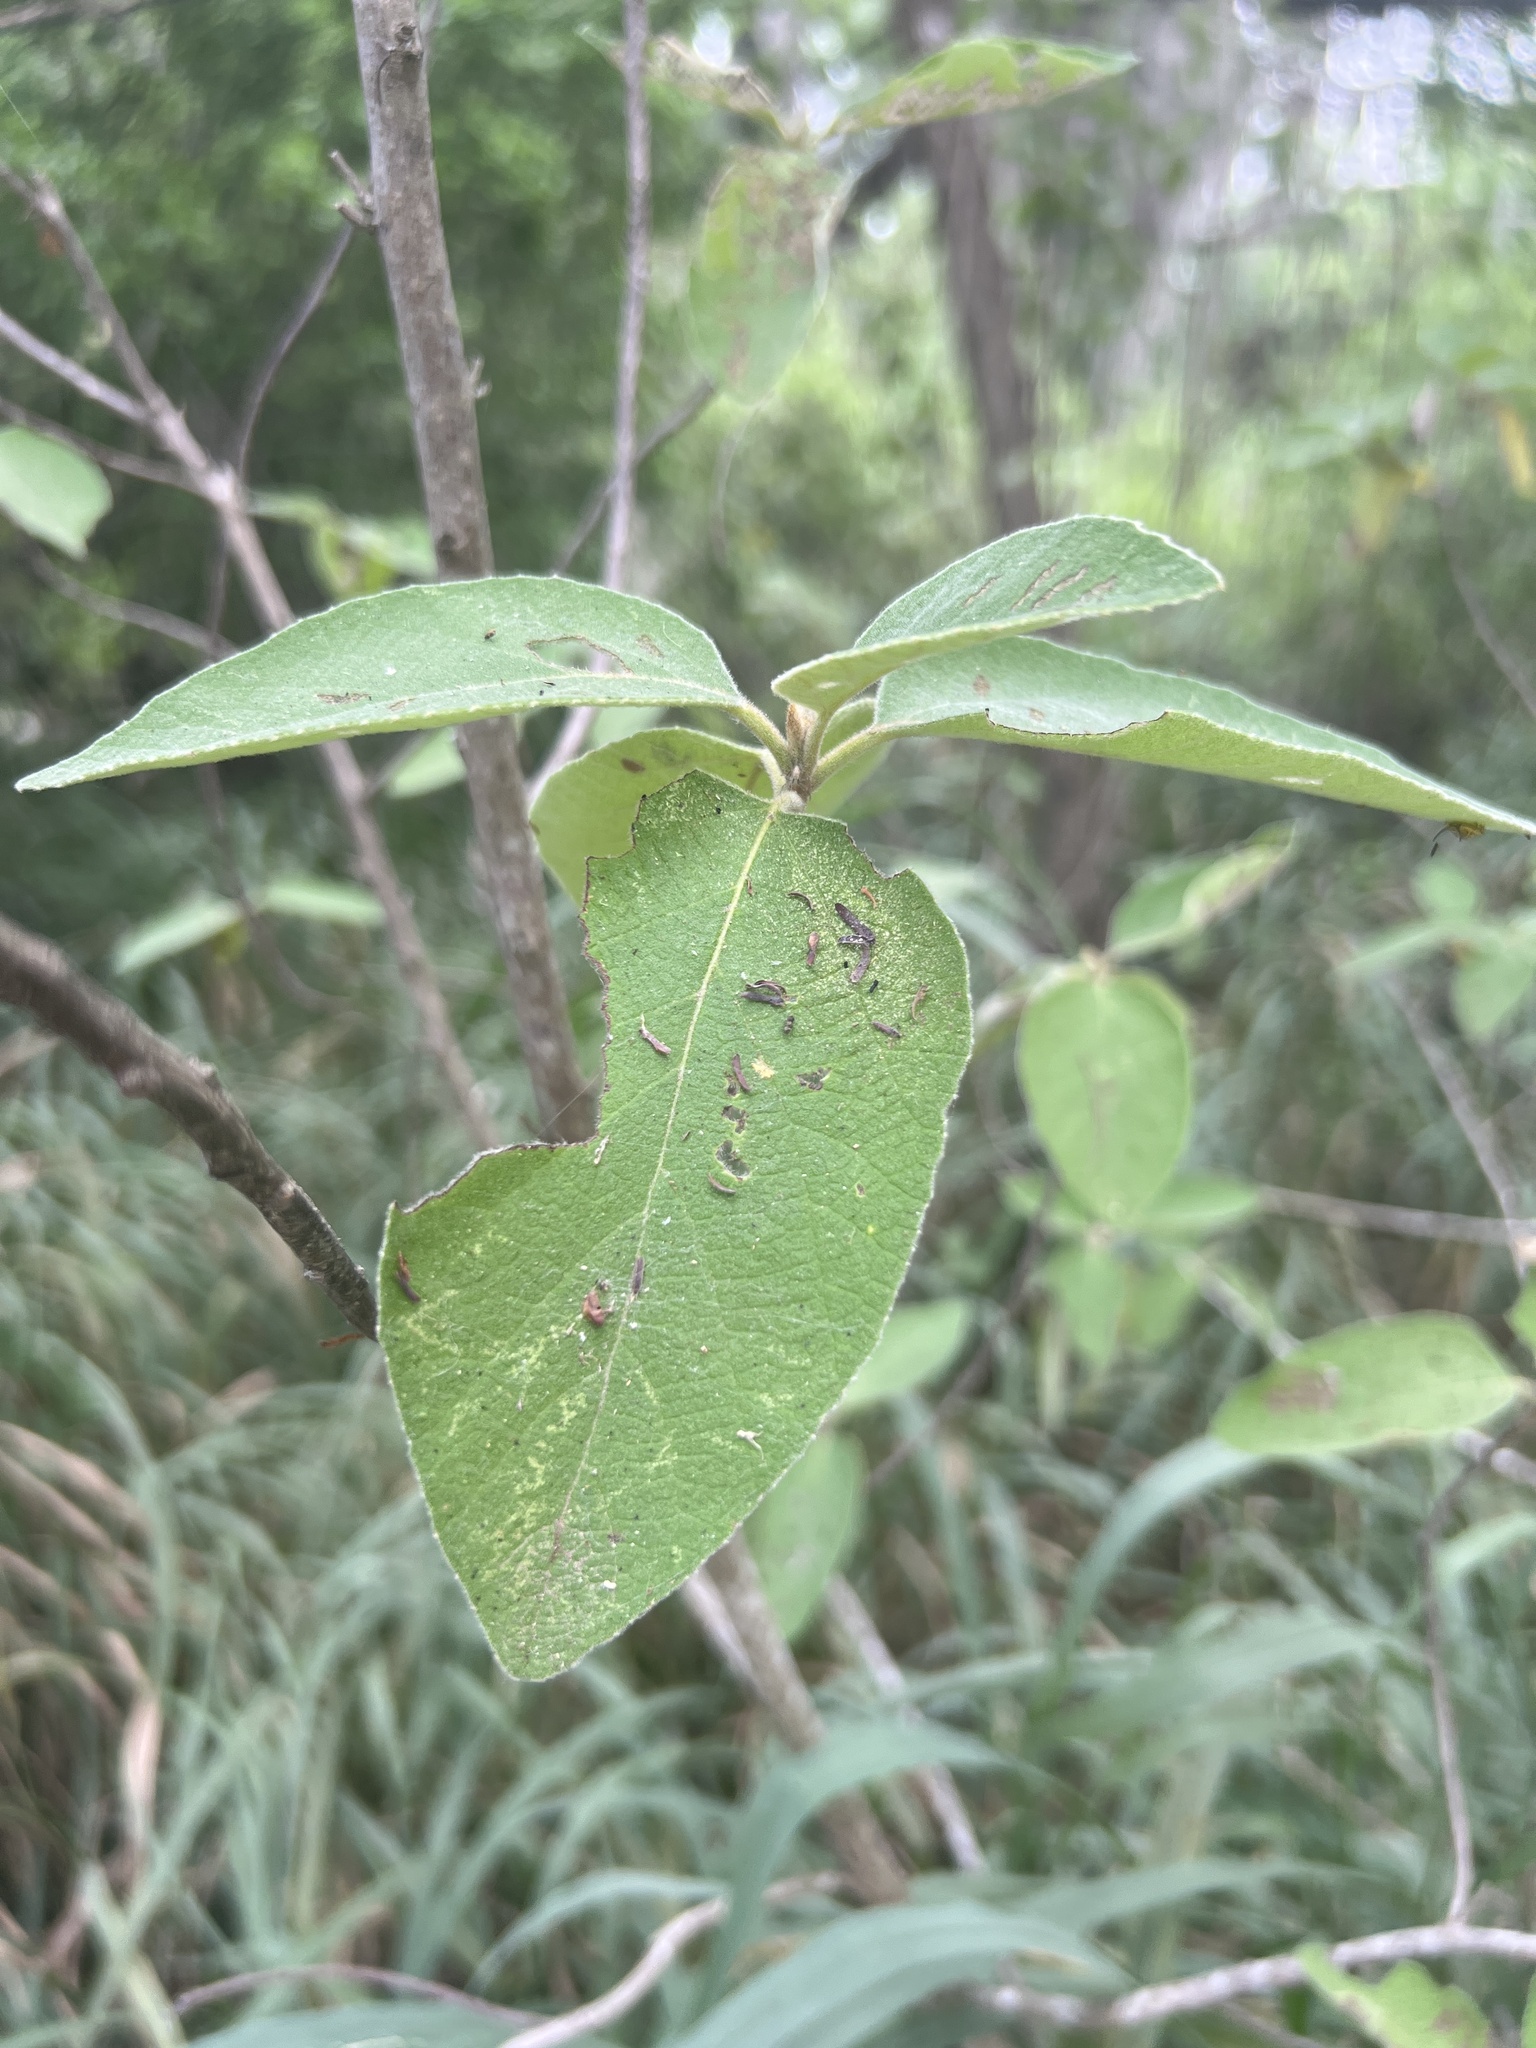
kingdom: Plantae
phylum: Tracheophyta
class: Magnoliopsida
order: Boraginales
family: Cordiaceae
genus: Cordia
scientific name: Cordia boissieri
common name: Mexican-olive
